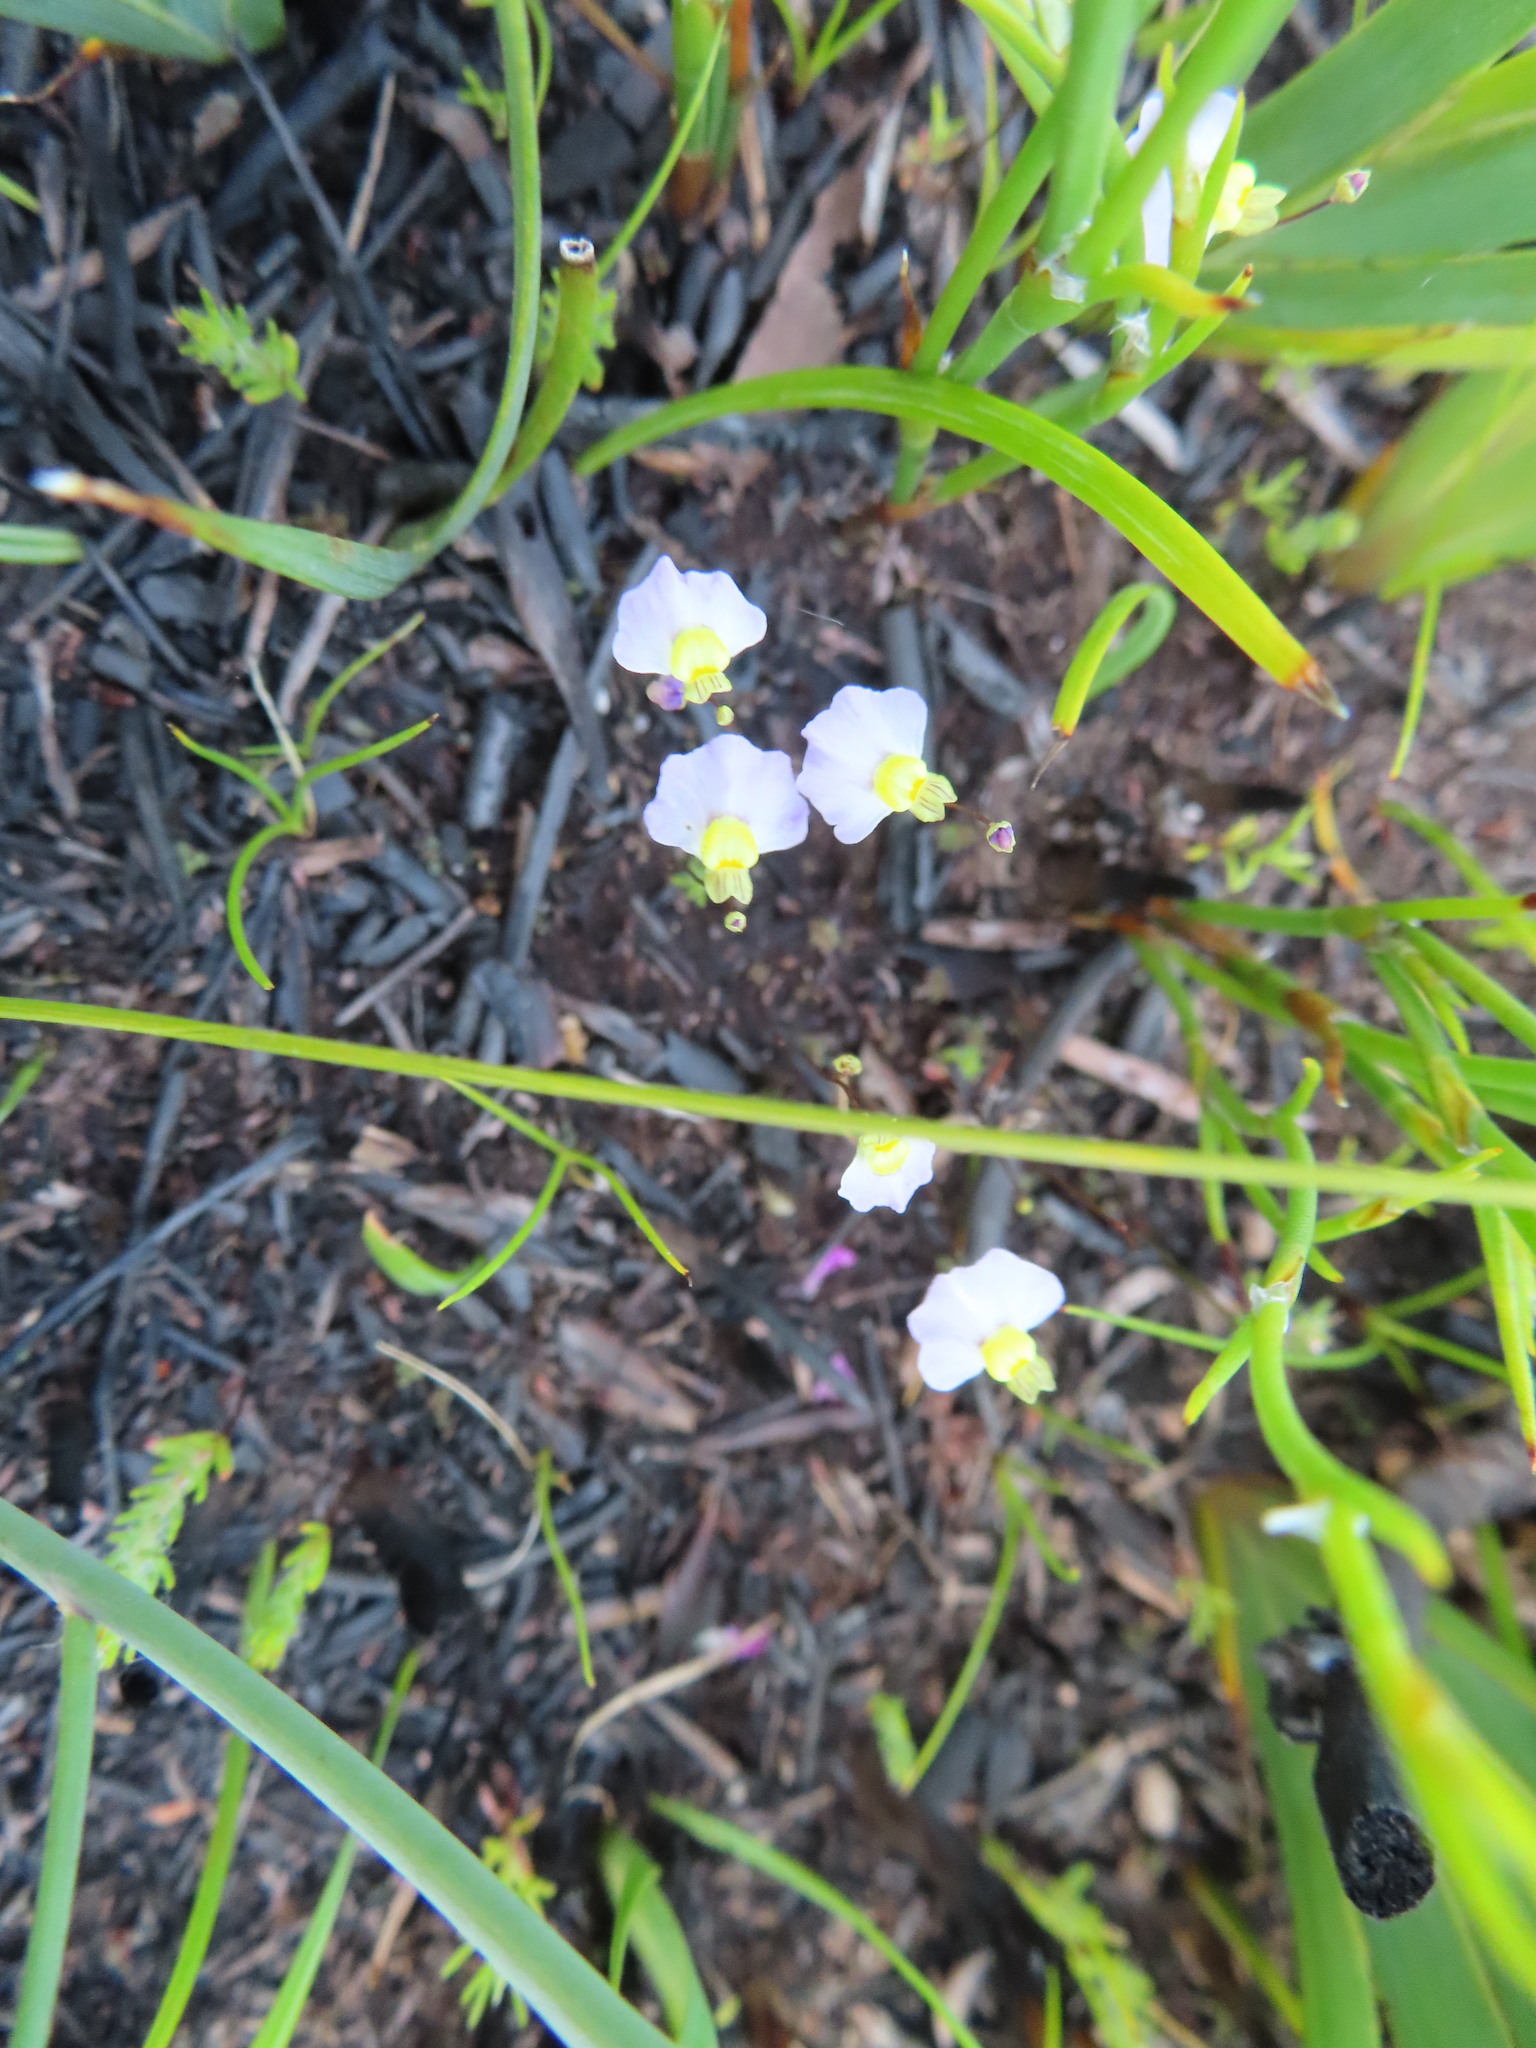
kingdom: Plantae
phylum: Tracheophyta
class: Magnoliopsida
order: Lamiales
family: Lentibulariaceae
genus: Utricularia
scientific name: Utricularia bisquamata
